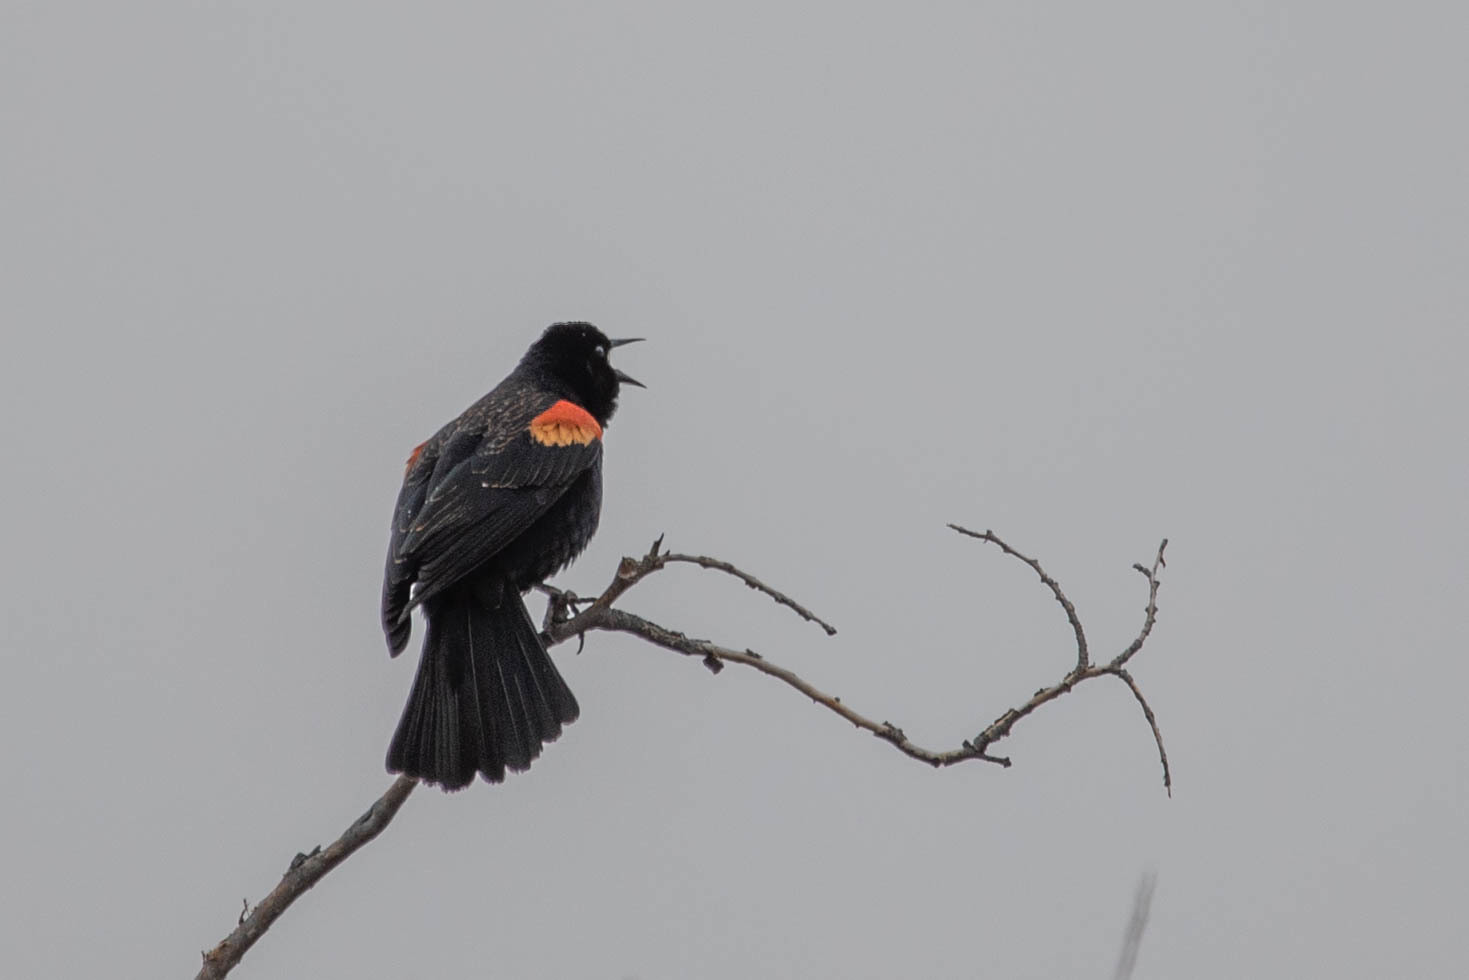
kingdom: Animalia
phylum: Chordata
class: Aves
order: Passeriformes
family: Icteridae
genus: Agelaius
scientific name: Agelaius phoeniceus
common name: Red-winged blackbird
